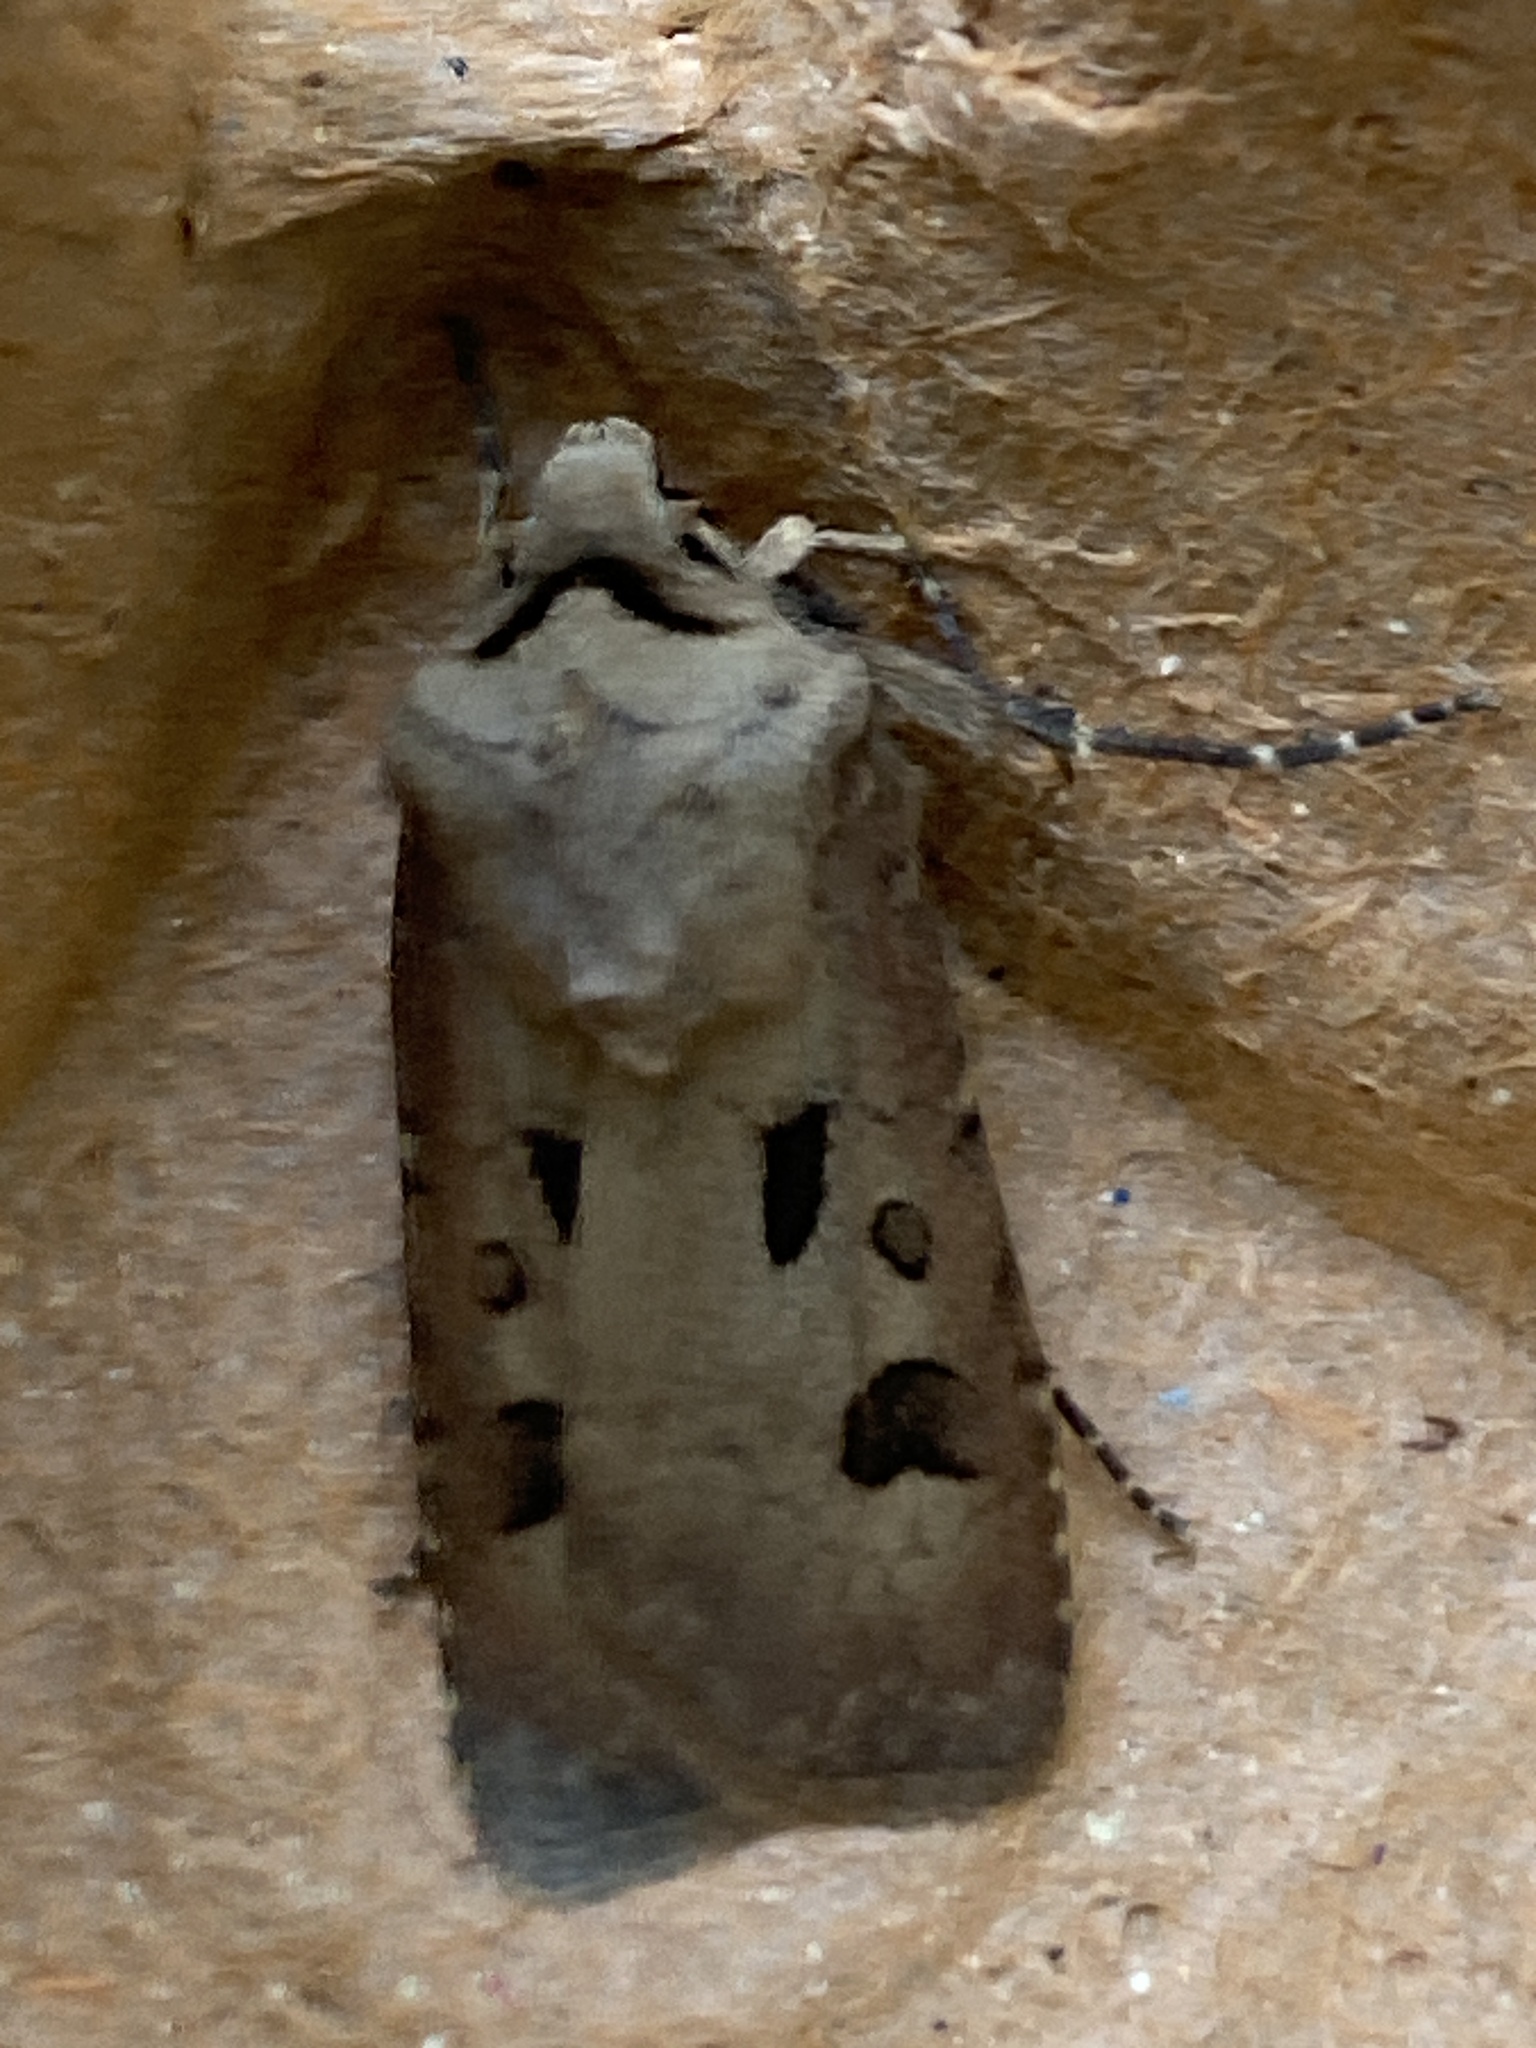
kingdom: Animalia
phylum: Arthropoda
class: Insecta
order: Lepidoptera
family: Noctuidae
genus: Agrotis
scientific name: Agrotis exclamationis
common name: Heart and dart
